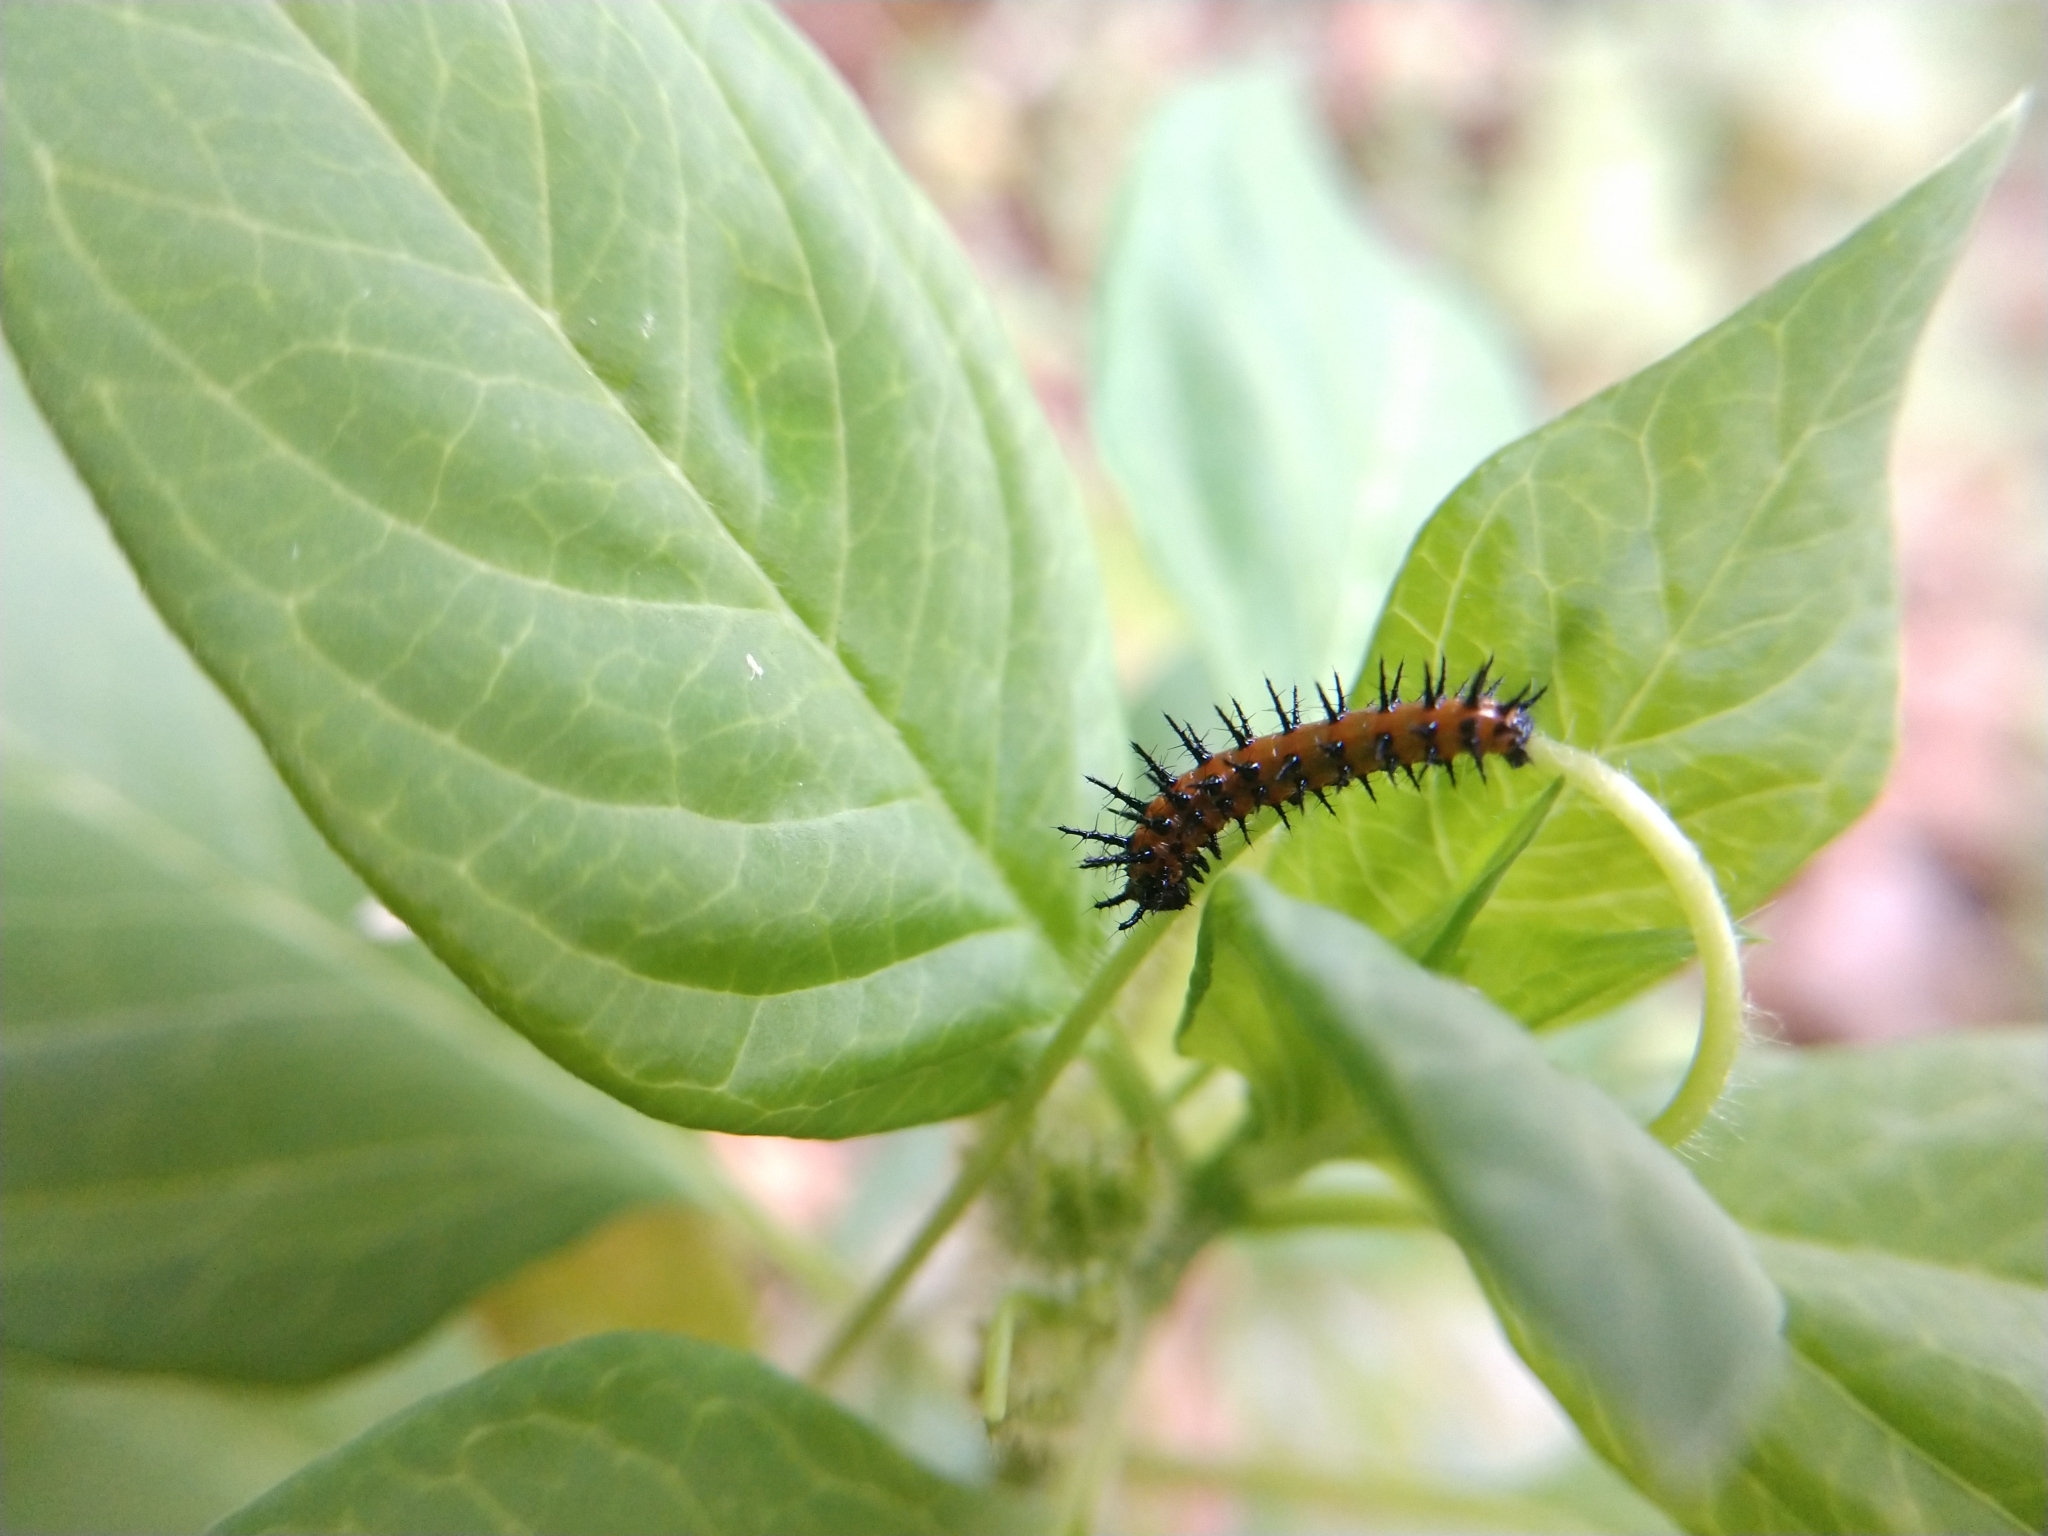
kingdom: Animalia
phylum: Arthropoda
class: Insecta
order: Lepidoptera
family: Nymphalidae
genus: Dione
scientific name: Dione vanillae
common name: Gulf fritillary
